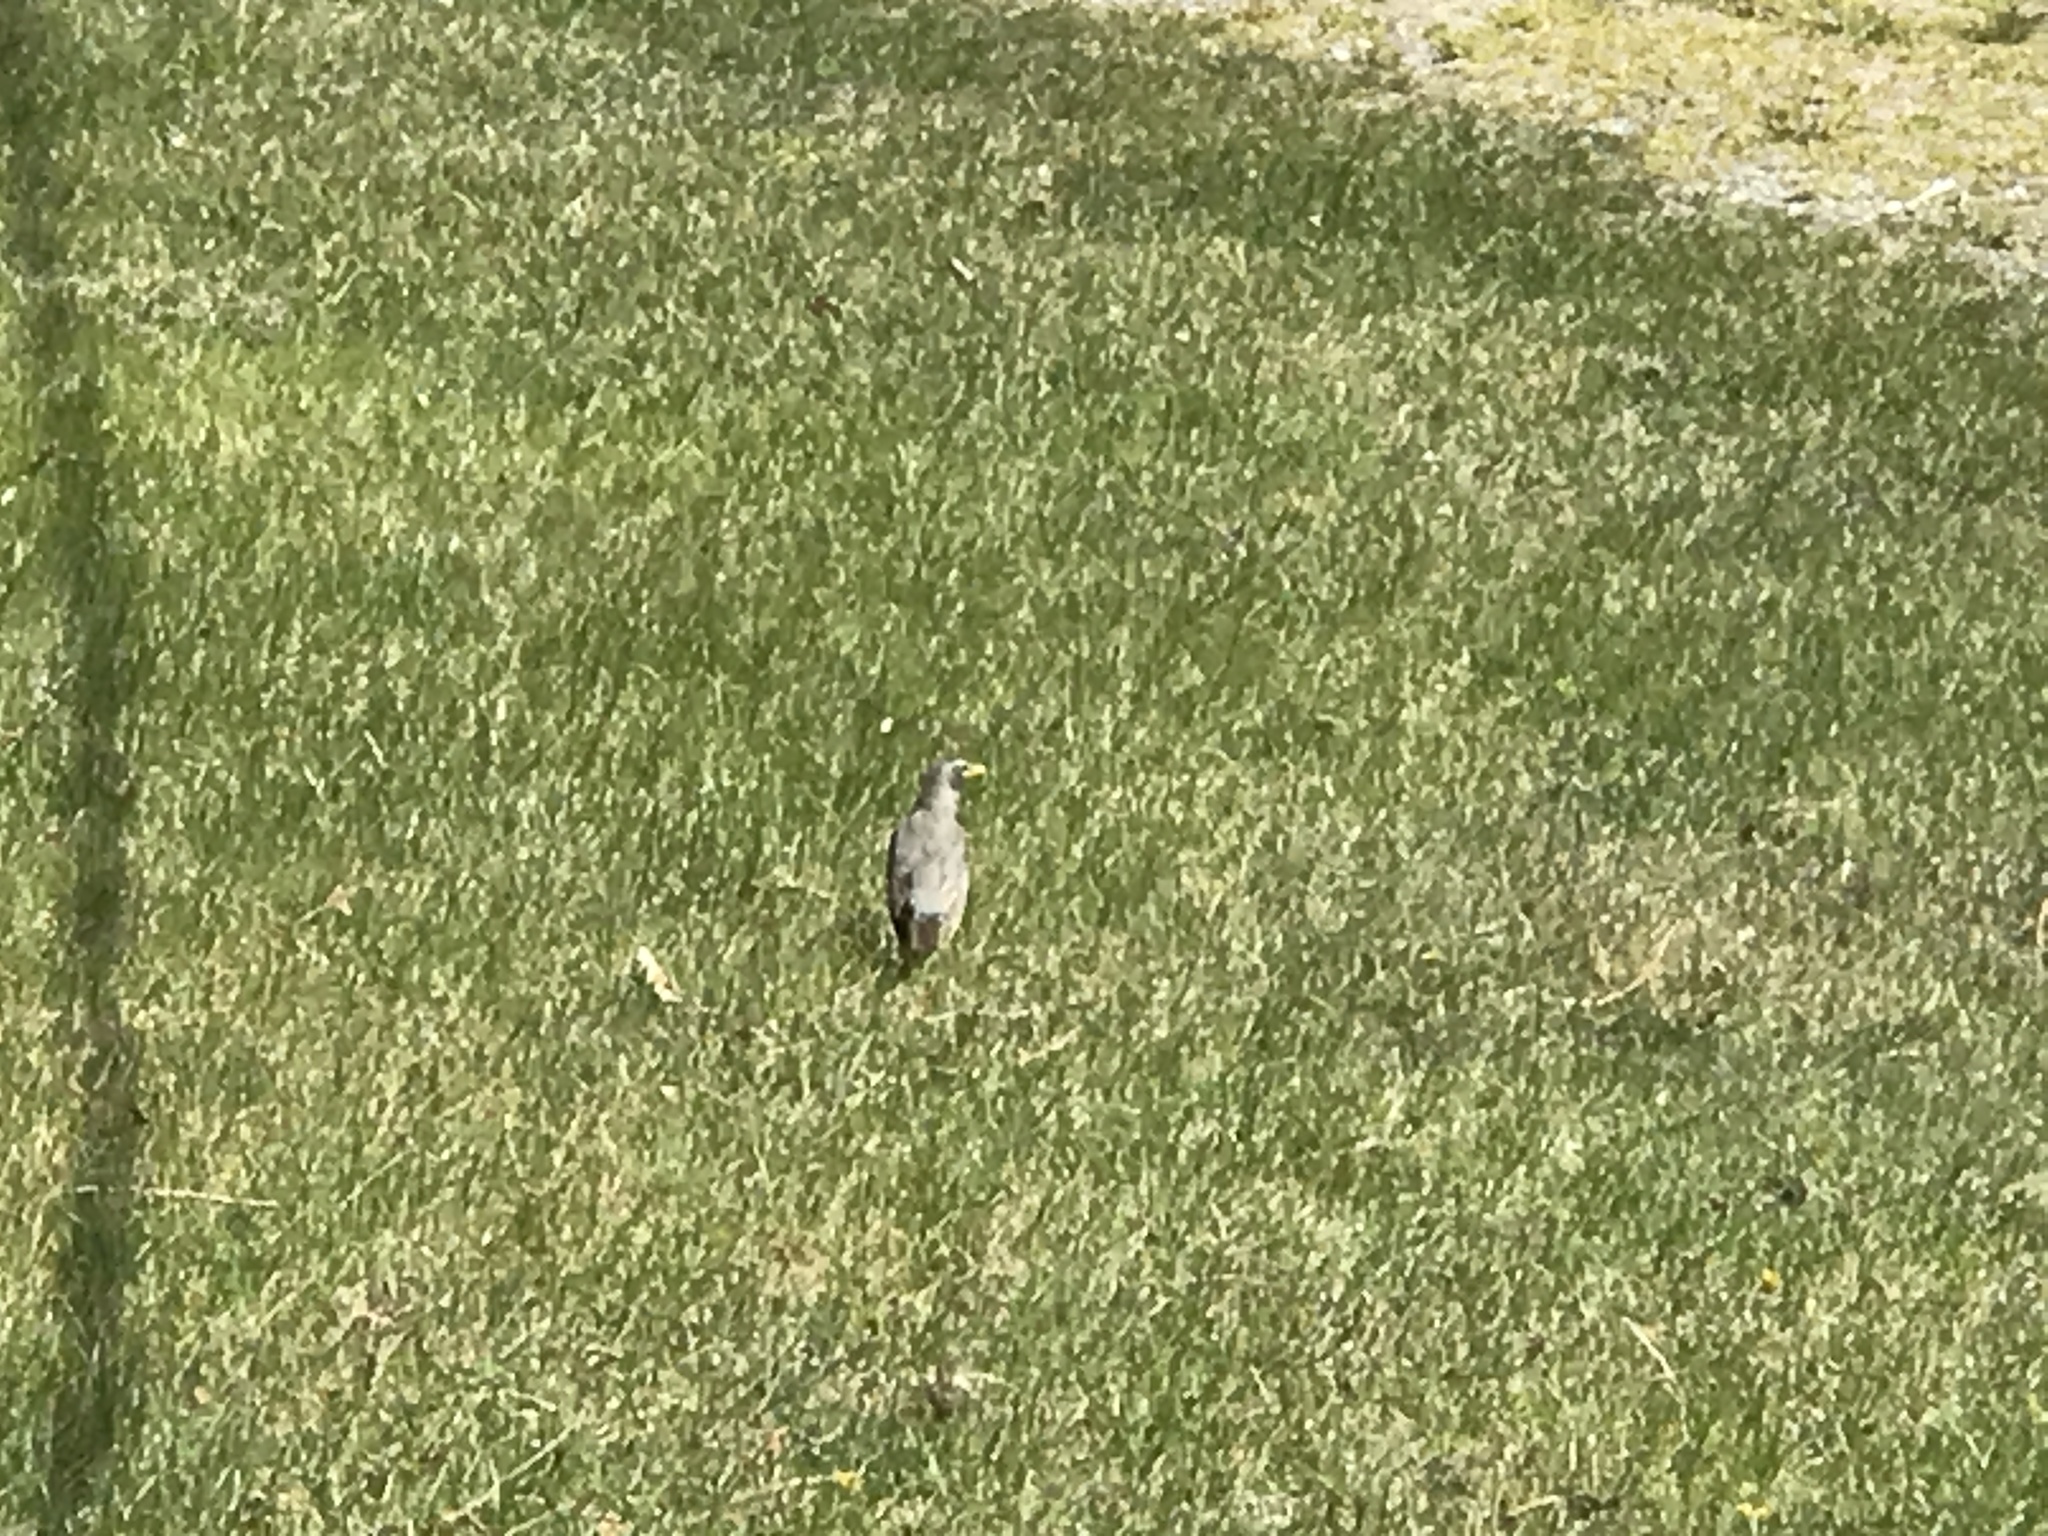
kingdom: Animalia
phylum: Chordata
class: Aves
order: Passeriformes
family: Turdidae
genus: Turdus
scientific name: Turdus migratorius
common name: American robin
